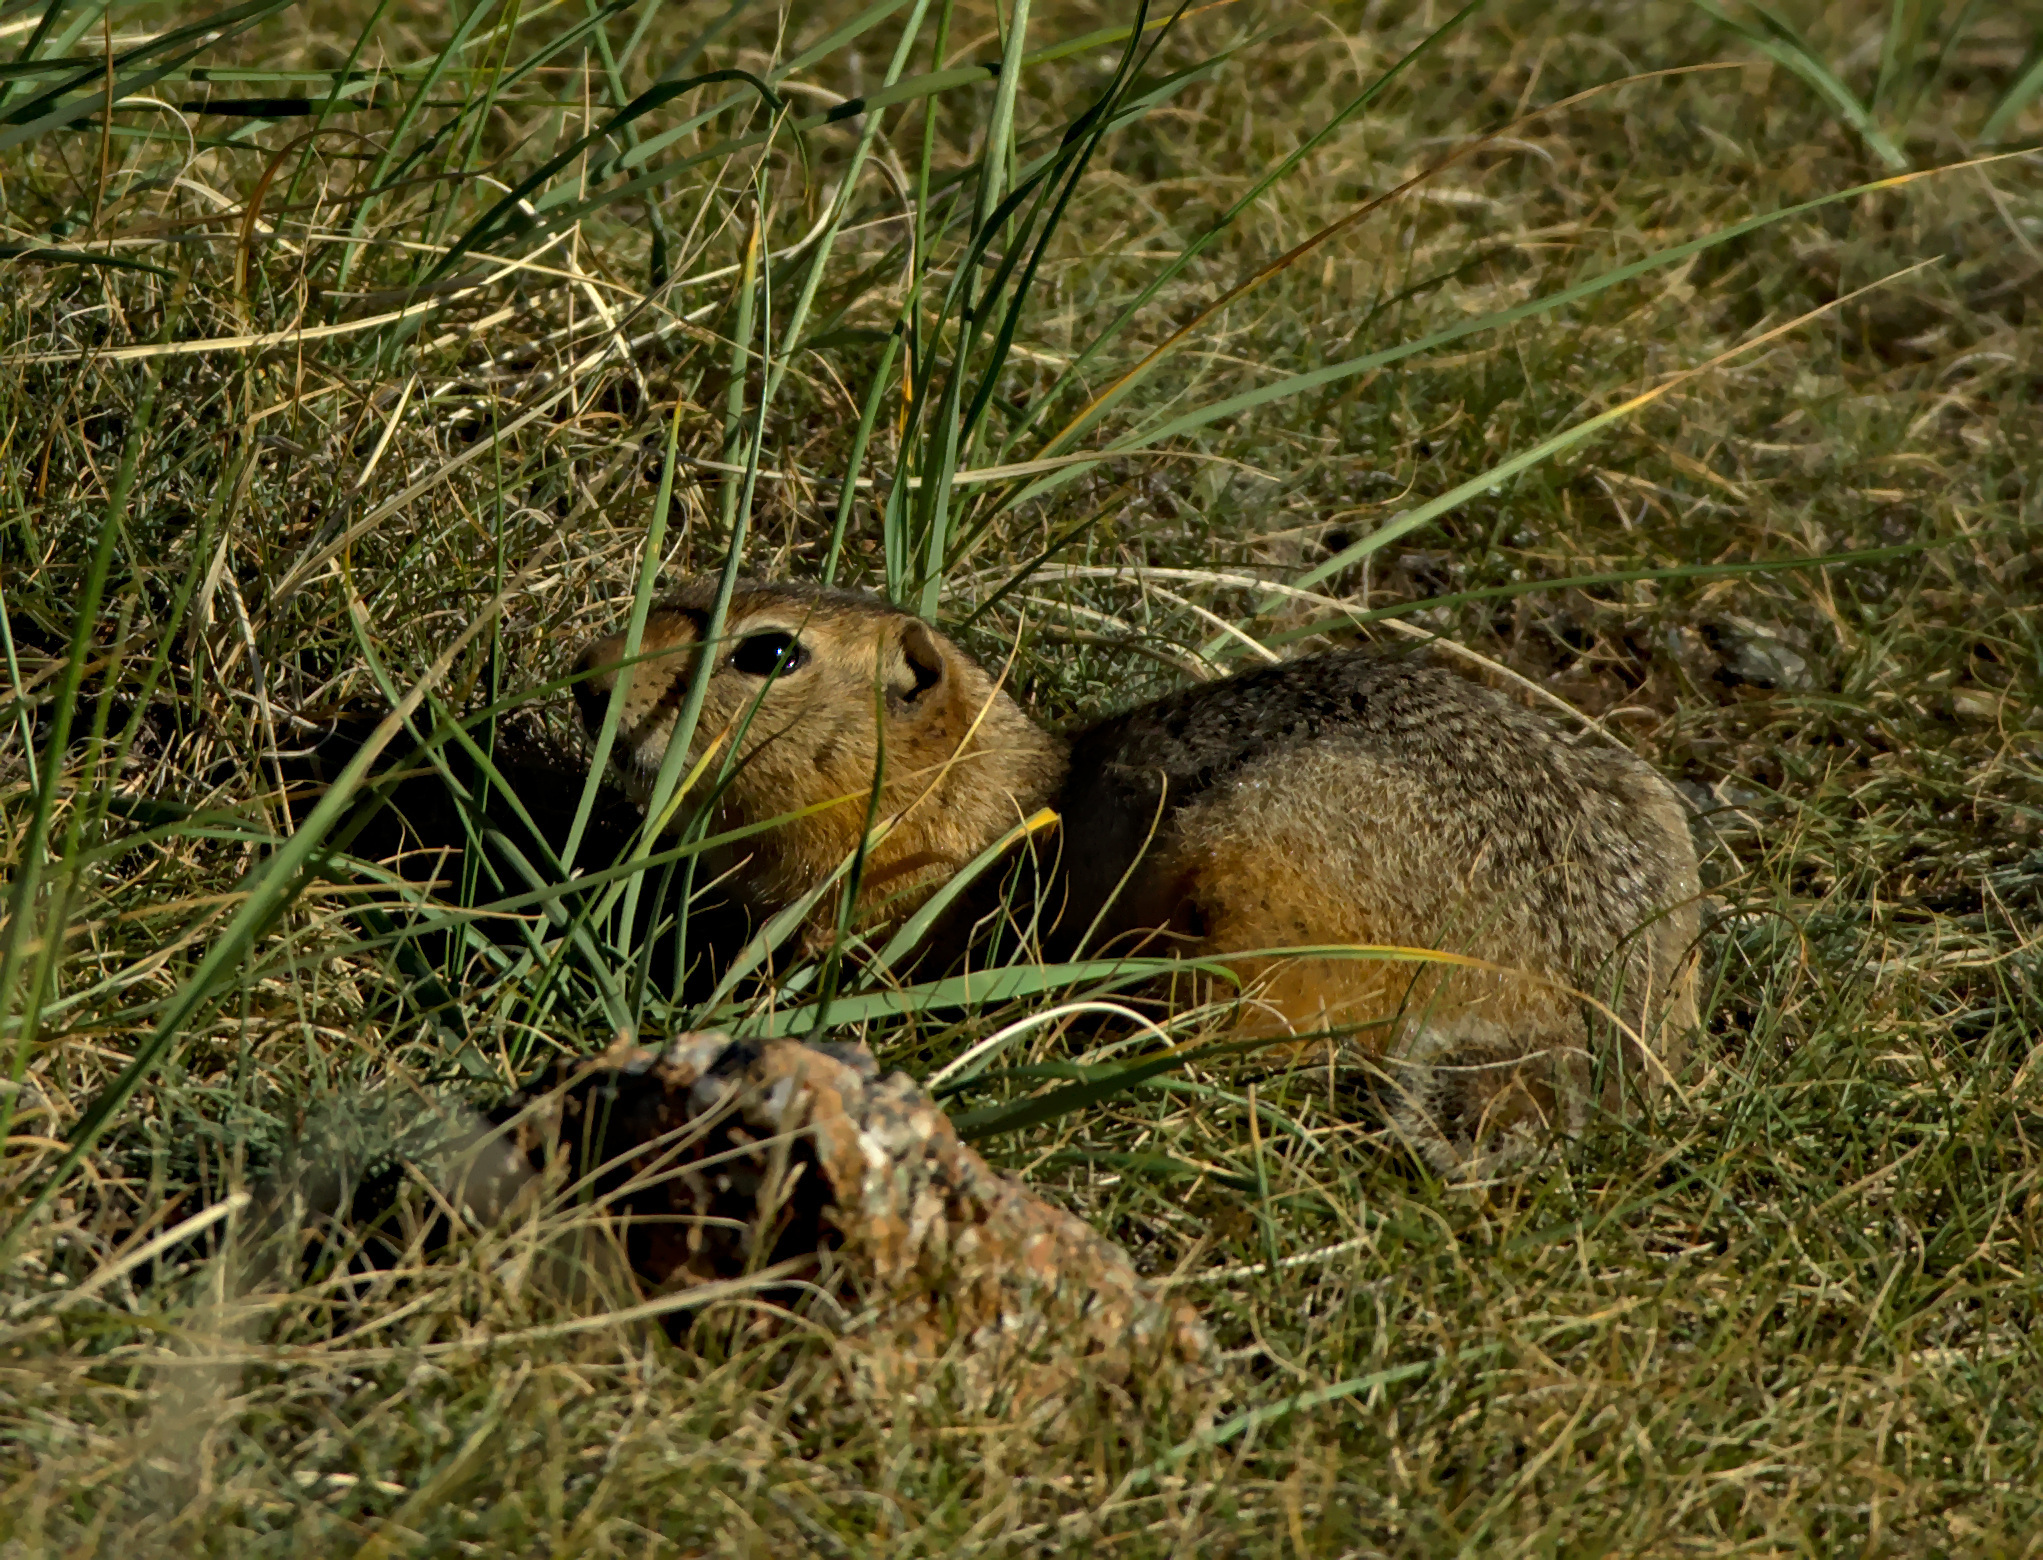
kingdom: Animalia
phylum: Chordata
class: Mammalia
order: Rodentia
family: Sciuridae
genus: Urocitellus
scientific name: Urocitellus undulatus
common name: Long-tailed ground squirrel
